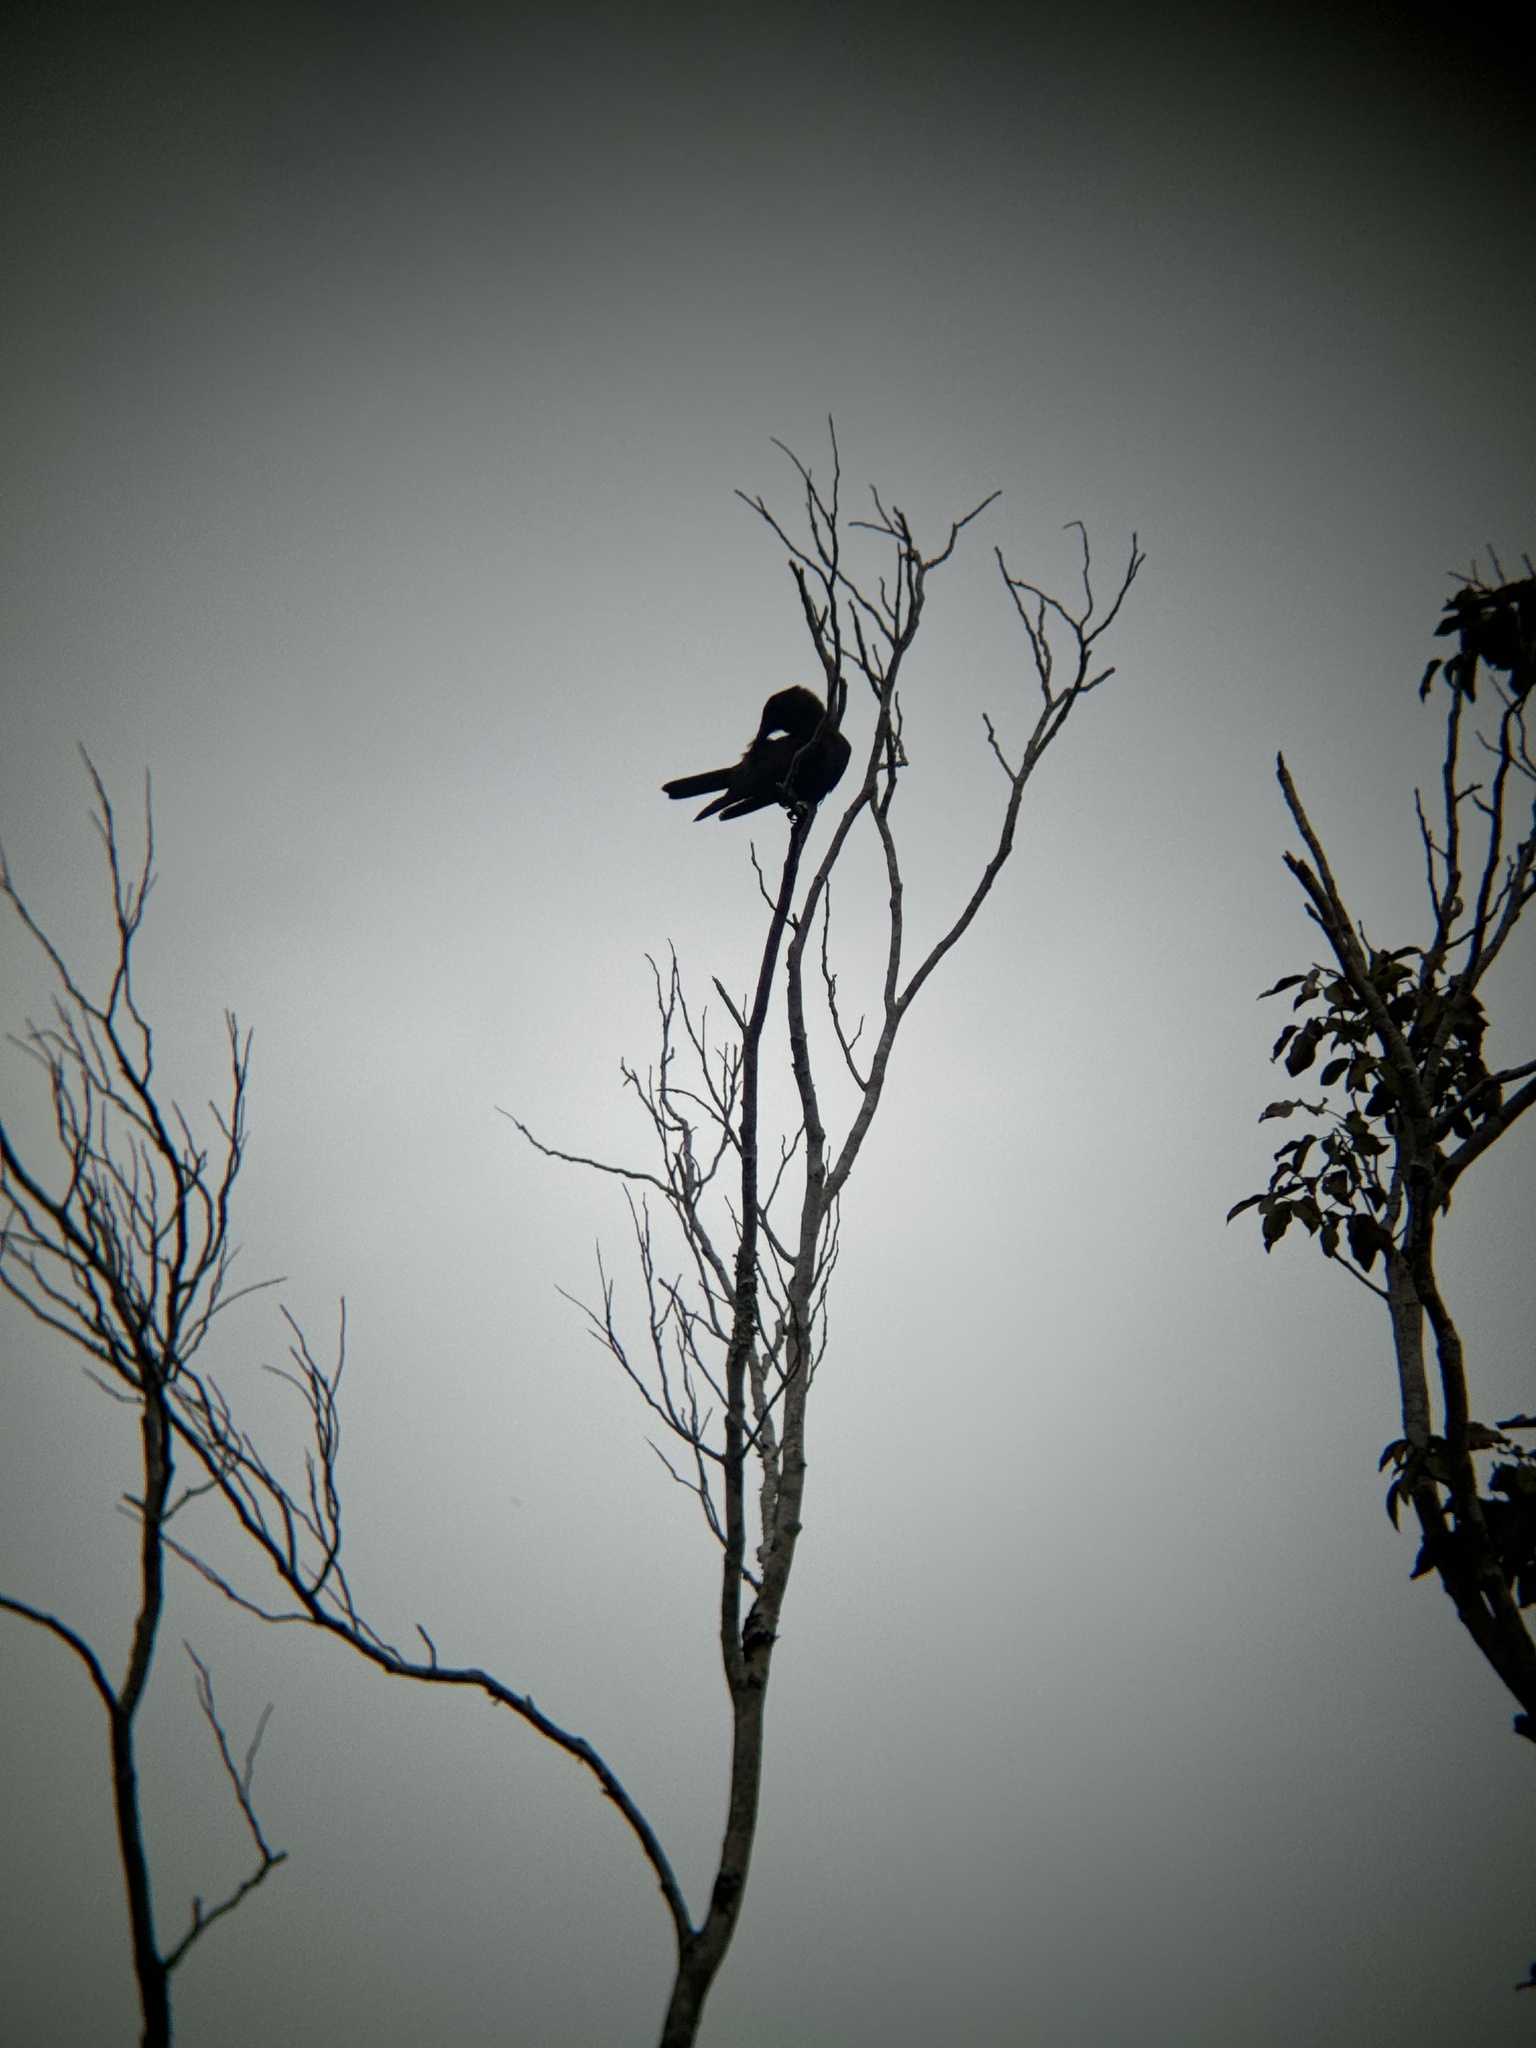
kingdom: Animalia
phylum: Chordata
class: Aves
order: Passeriformes
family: Corvidae
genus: Corvus
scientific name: Corvus jamaicensis
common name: Jamaican crow
